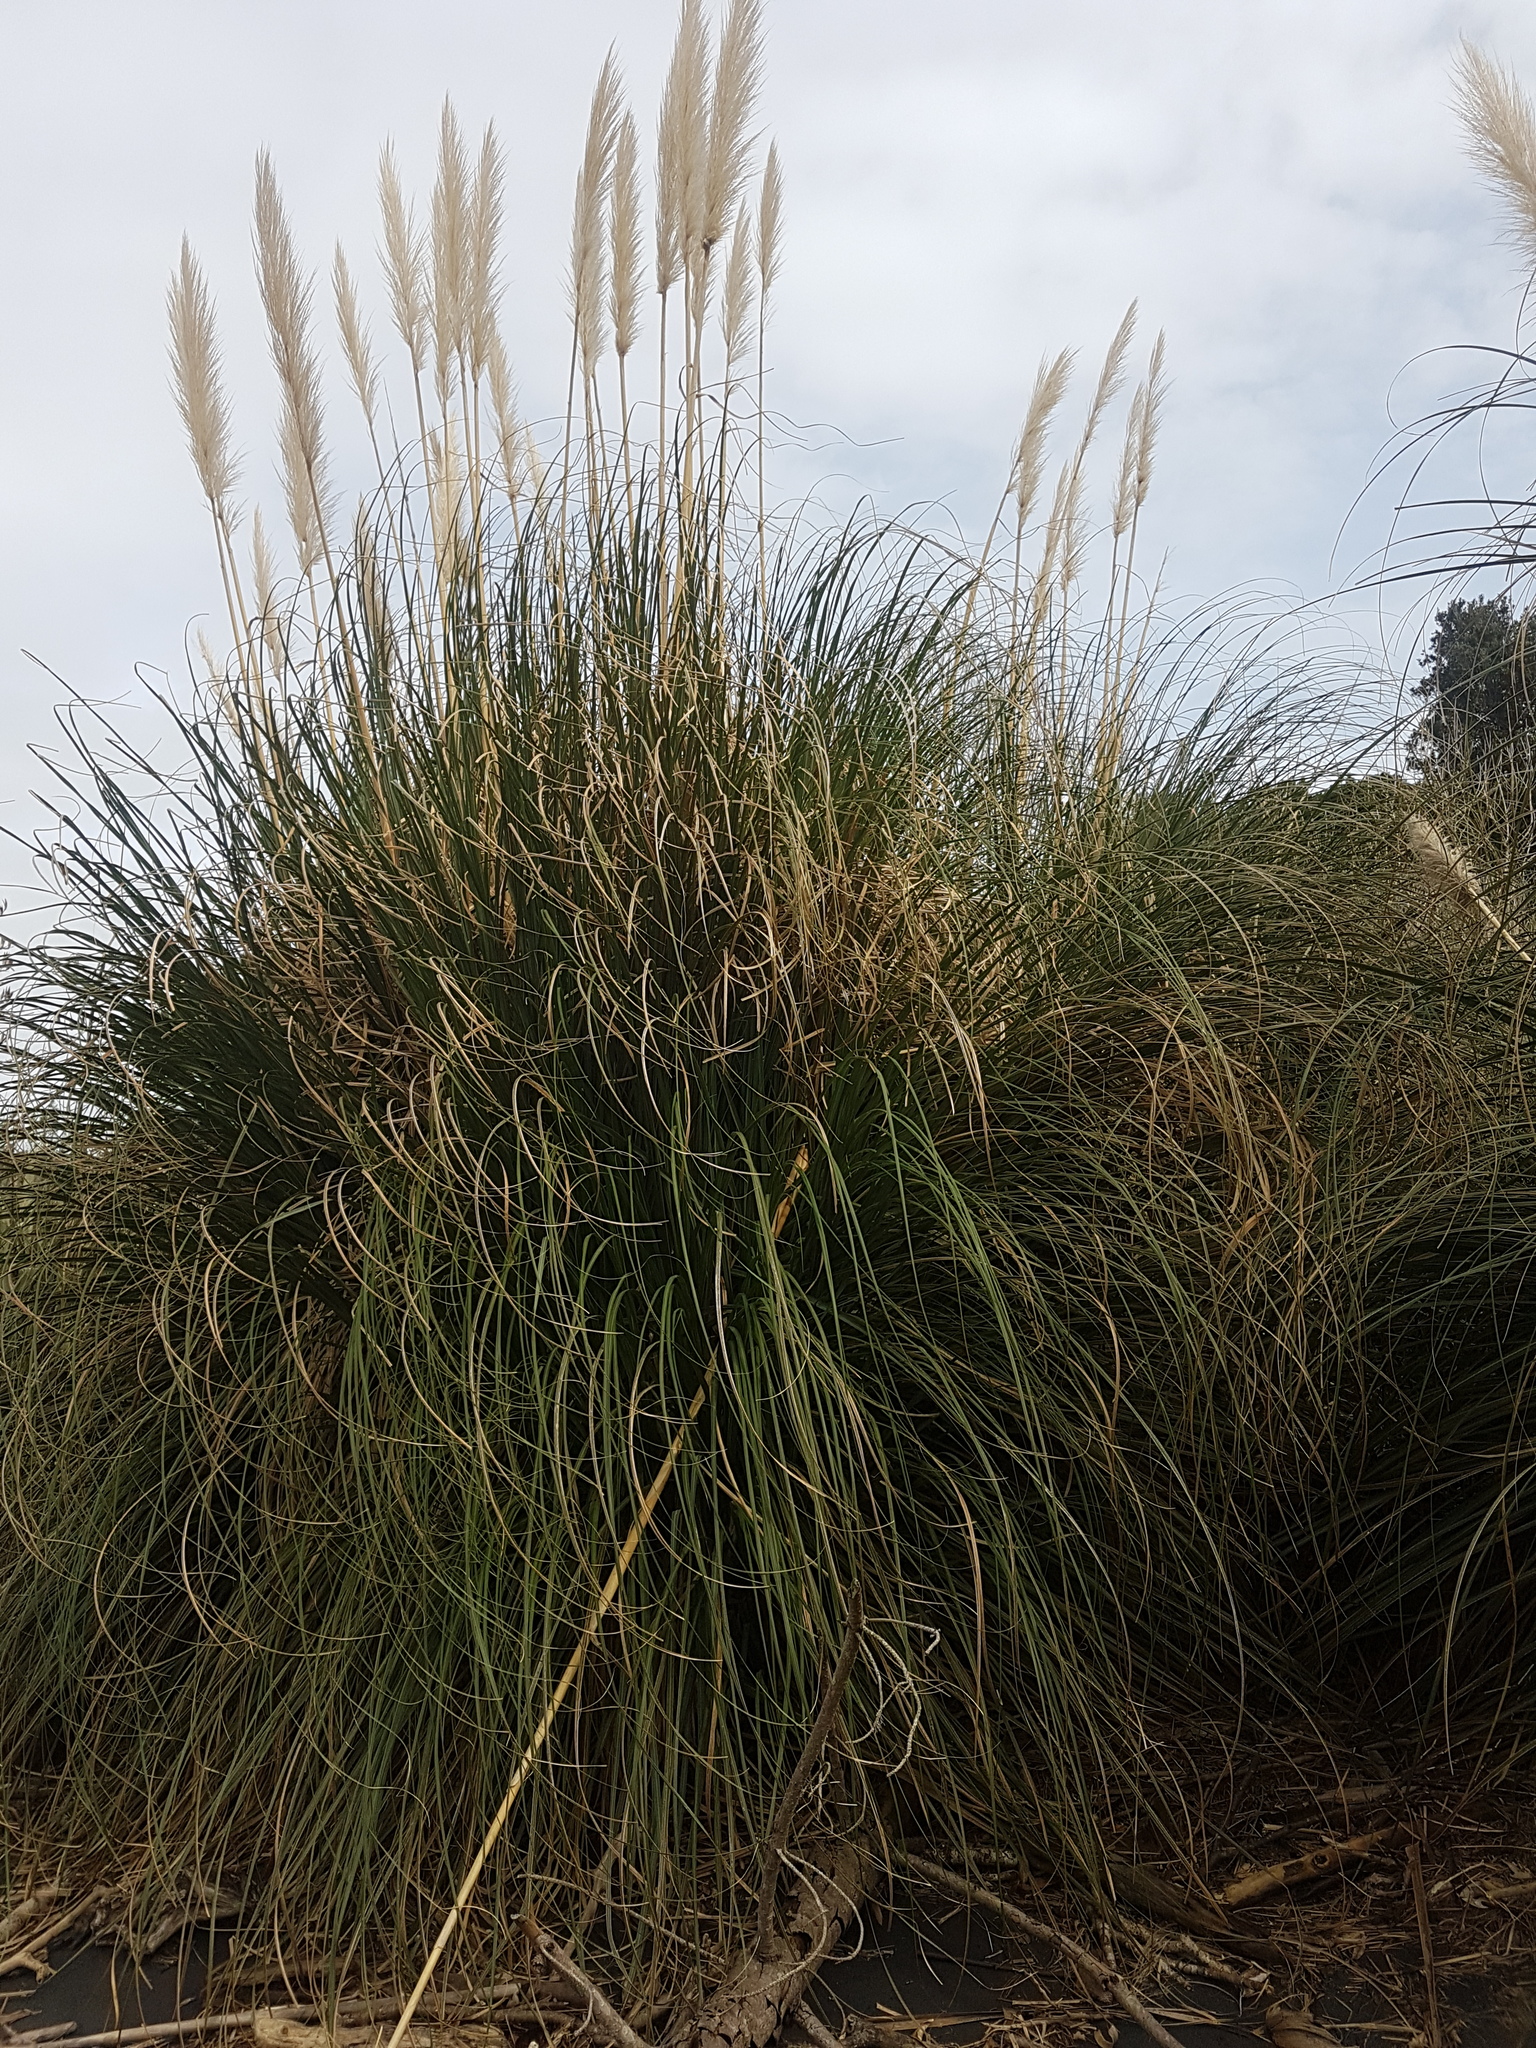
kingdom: Plantae
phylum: Tracheophyta
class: Liliopsida
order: Poales
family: Poaceae
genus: Cortaderia
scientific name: Cortaderia selloana
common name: Uruguayan pampas grass
